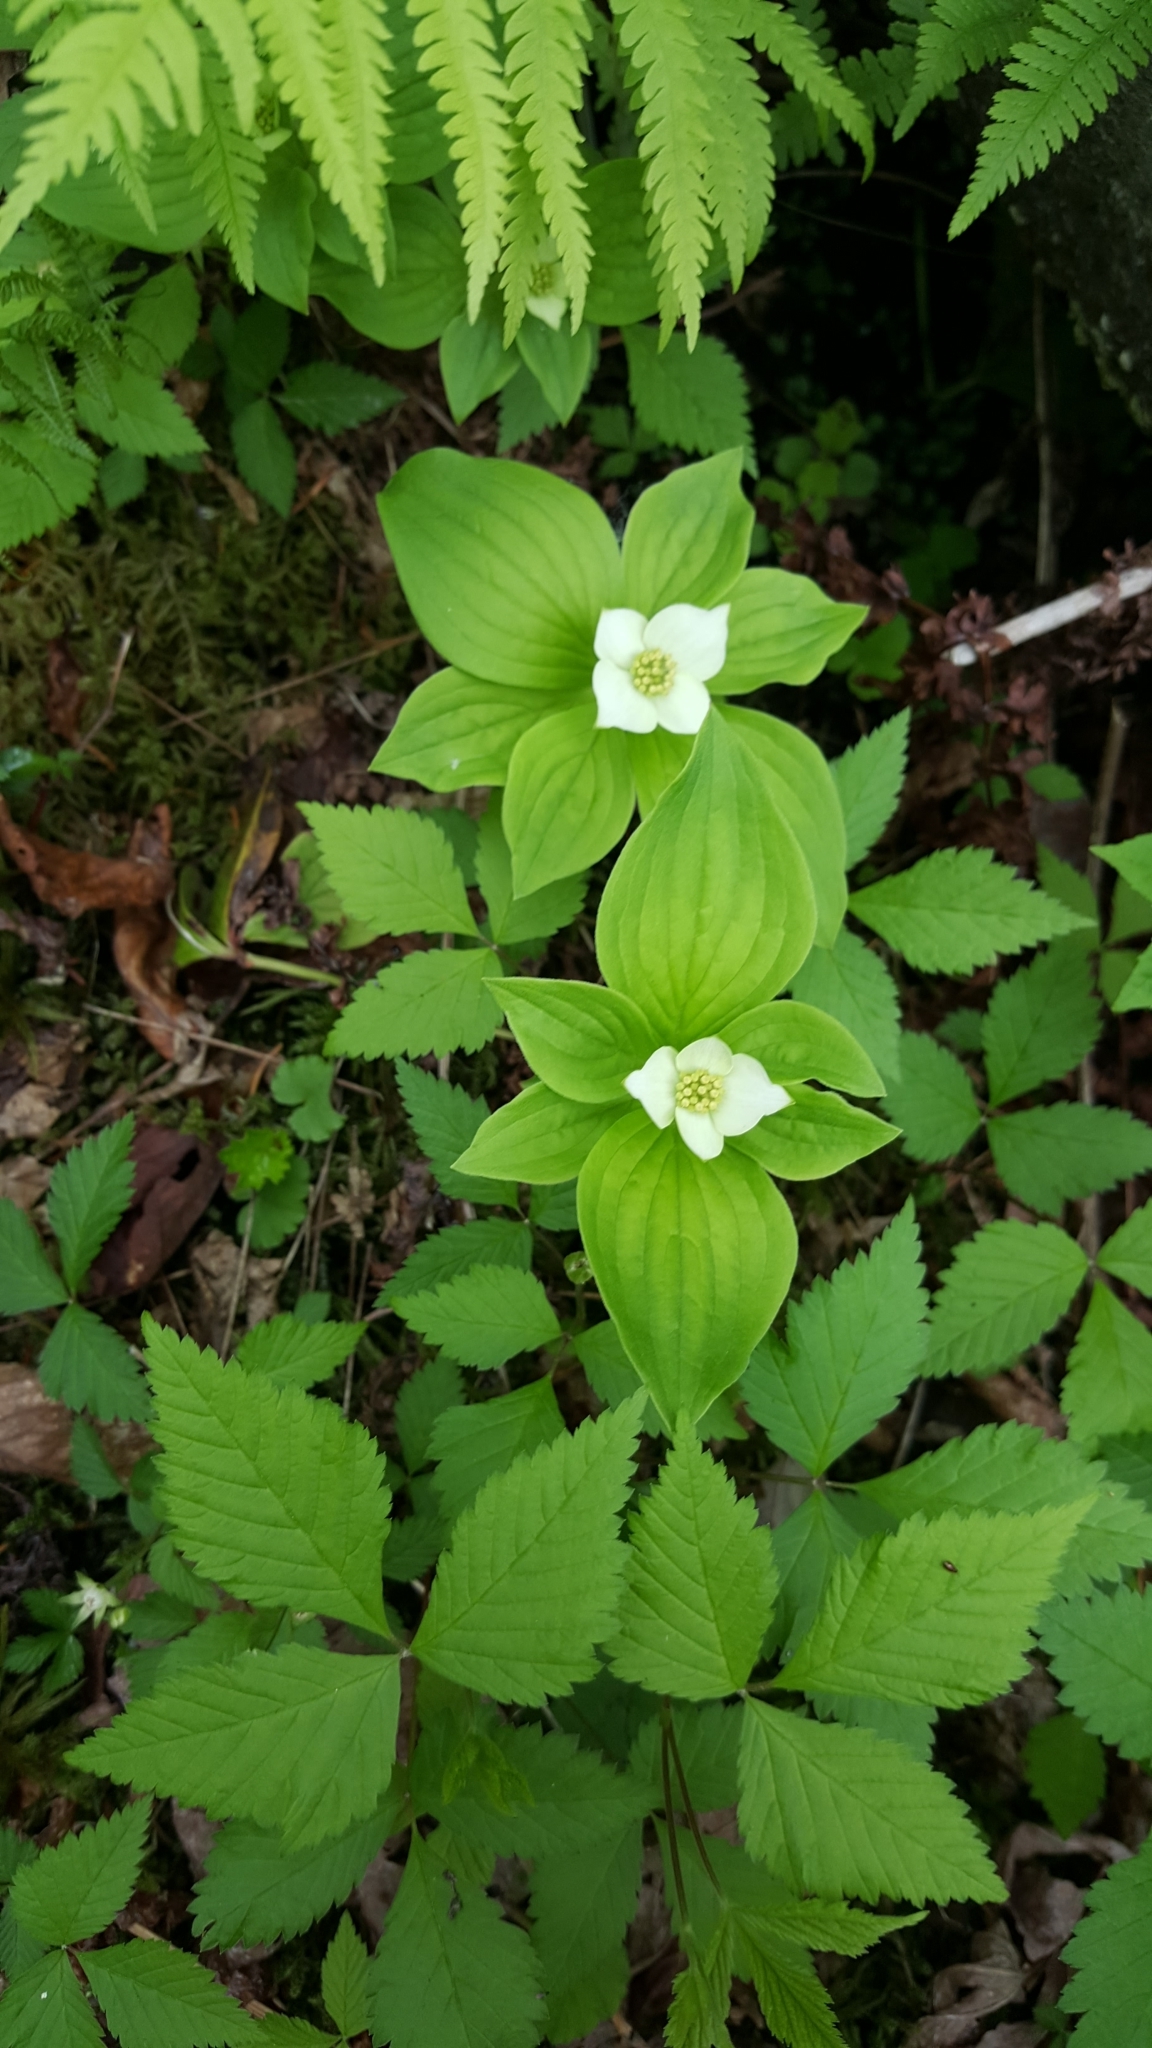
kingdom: Plantae
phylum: Tracheophyta
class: Magnoliopsida
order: Cornales
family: Cornaceae
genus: Cornus
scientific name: Cornus canadensis
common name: Creeping dogwood
